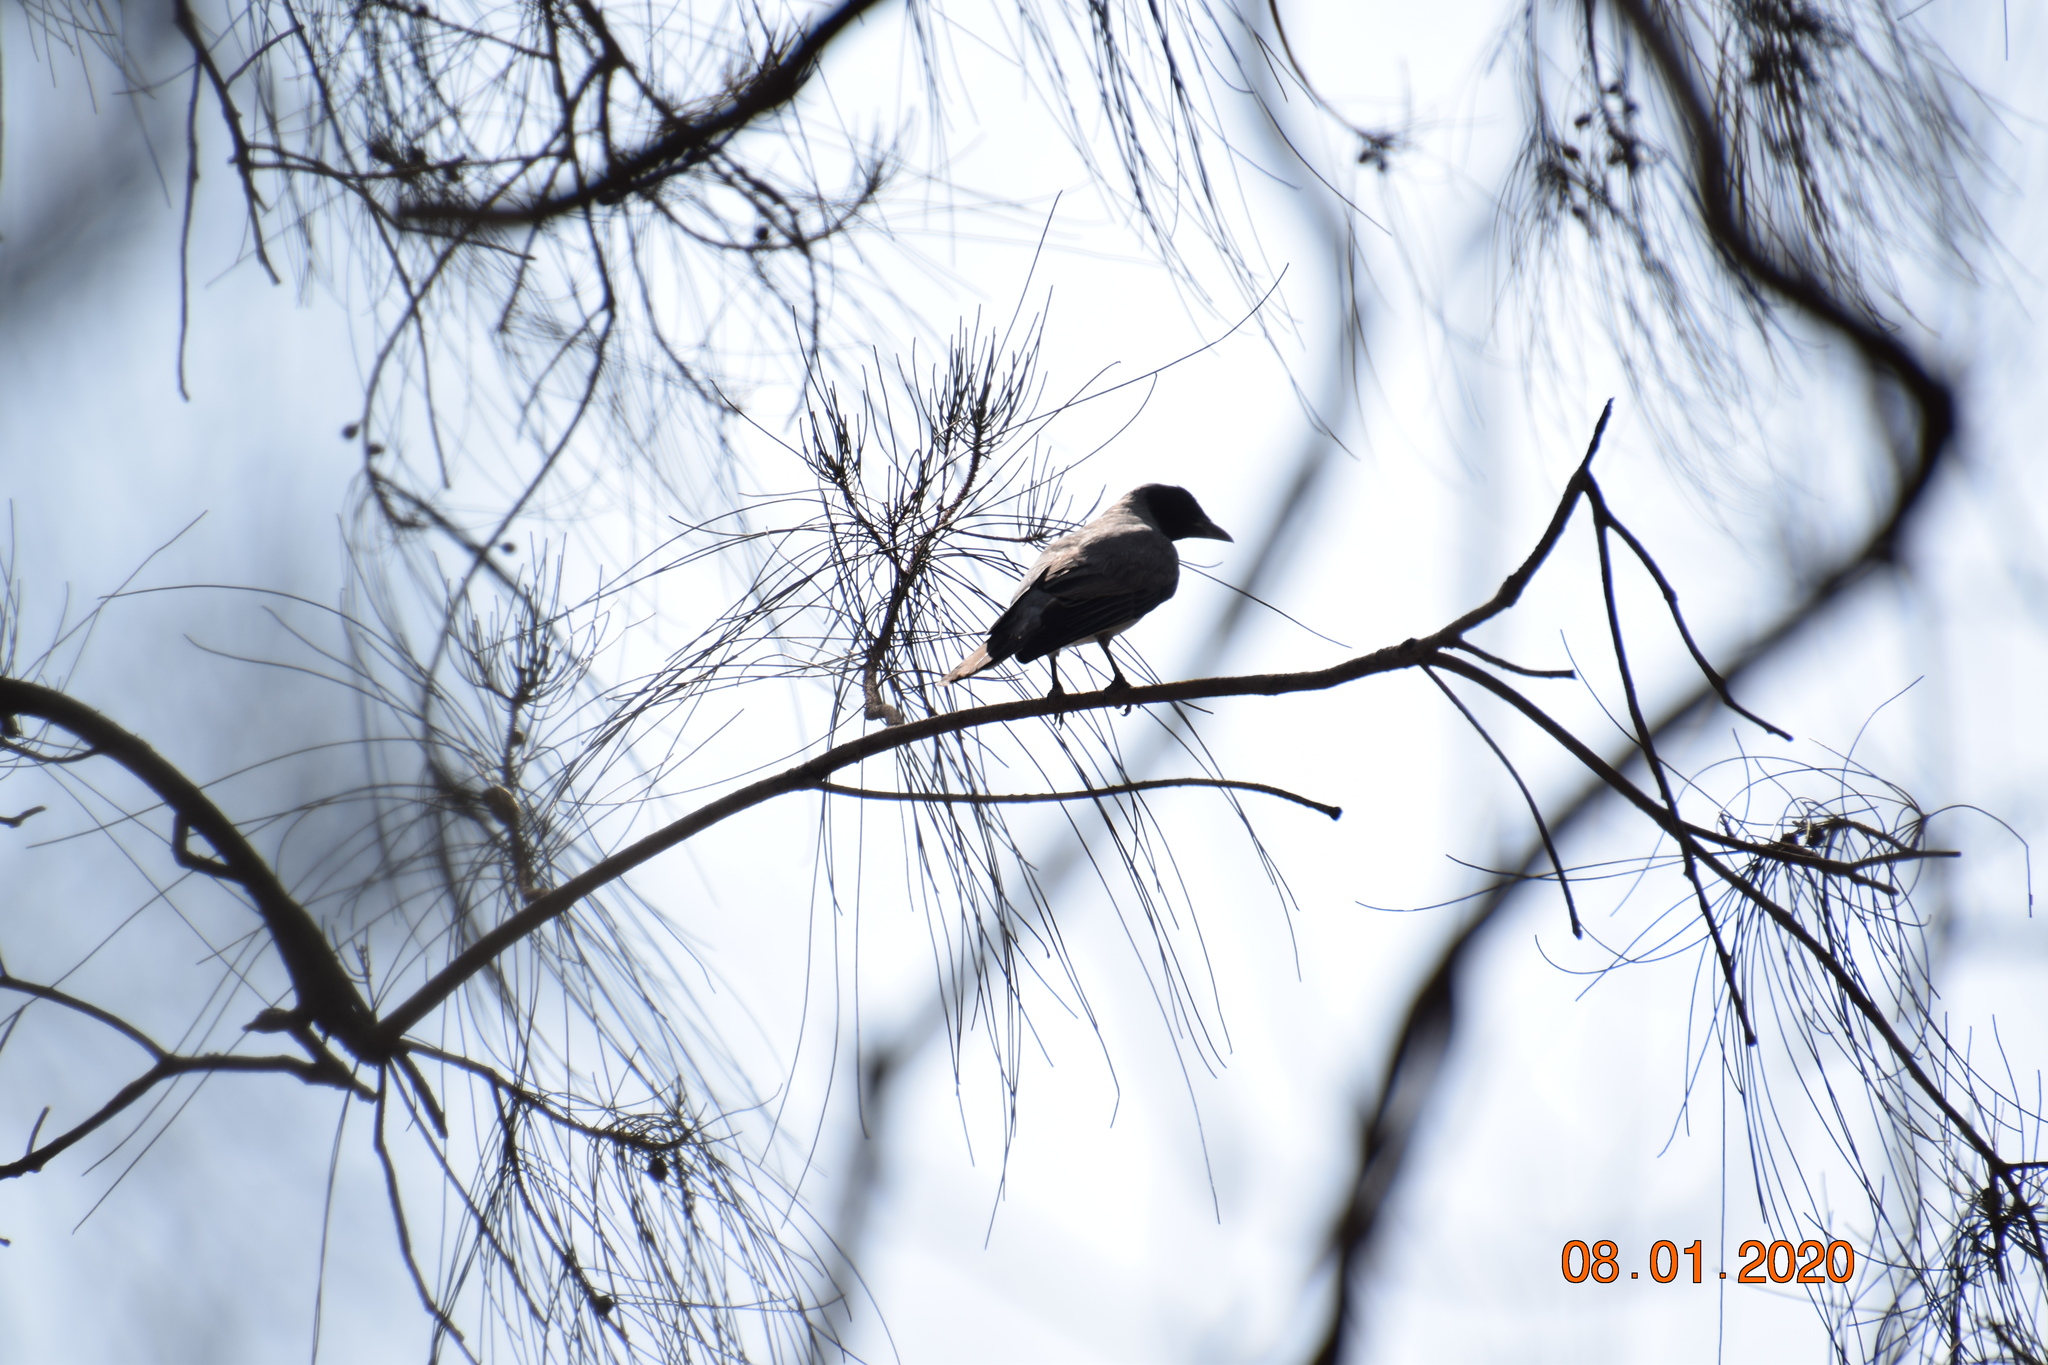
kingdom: Animalia
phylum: Chordata
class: Aves
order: Passeriformes
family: Campephagidae
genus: Coracina
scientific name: Coracina novaehollandiae
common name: Black-faced cuckooshrike
